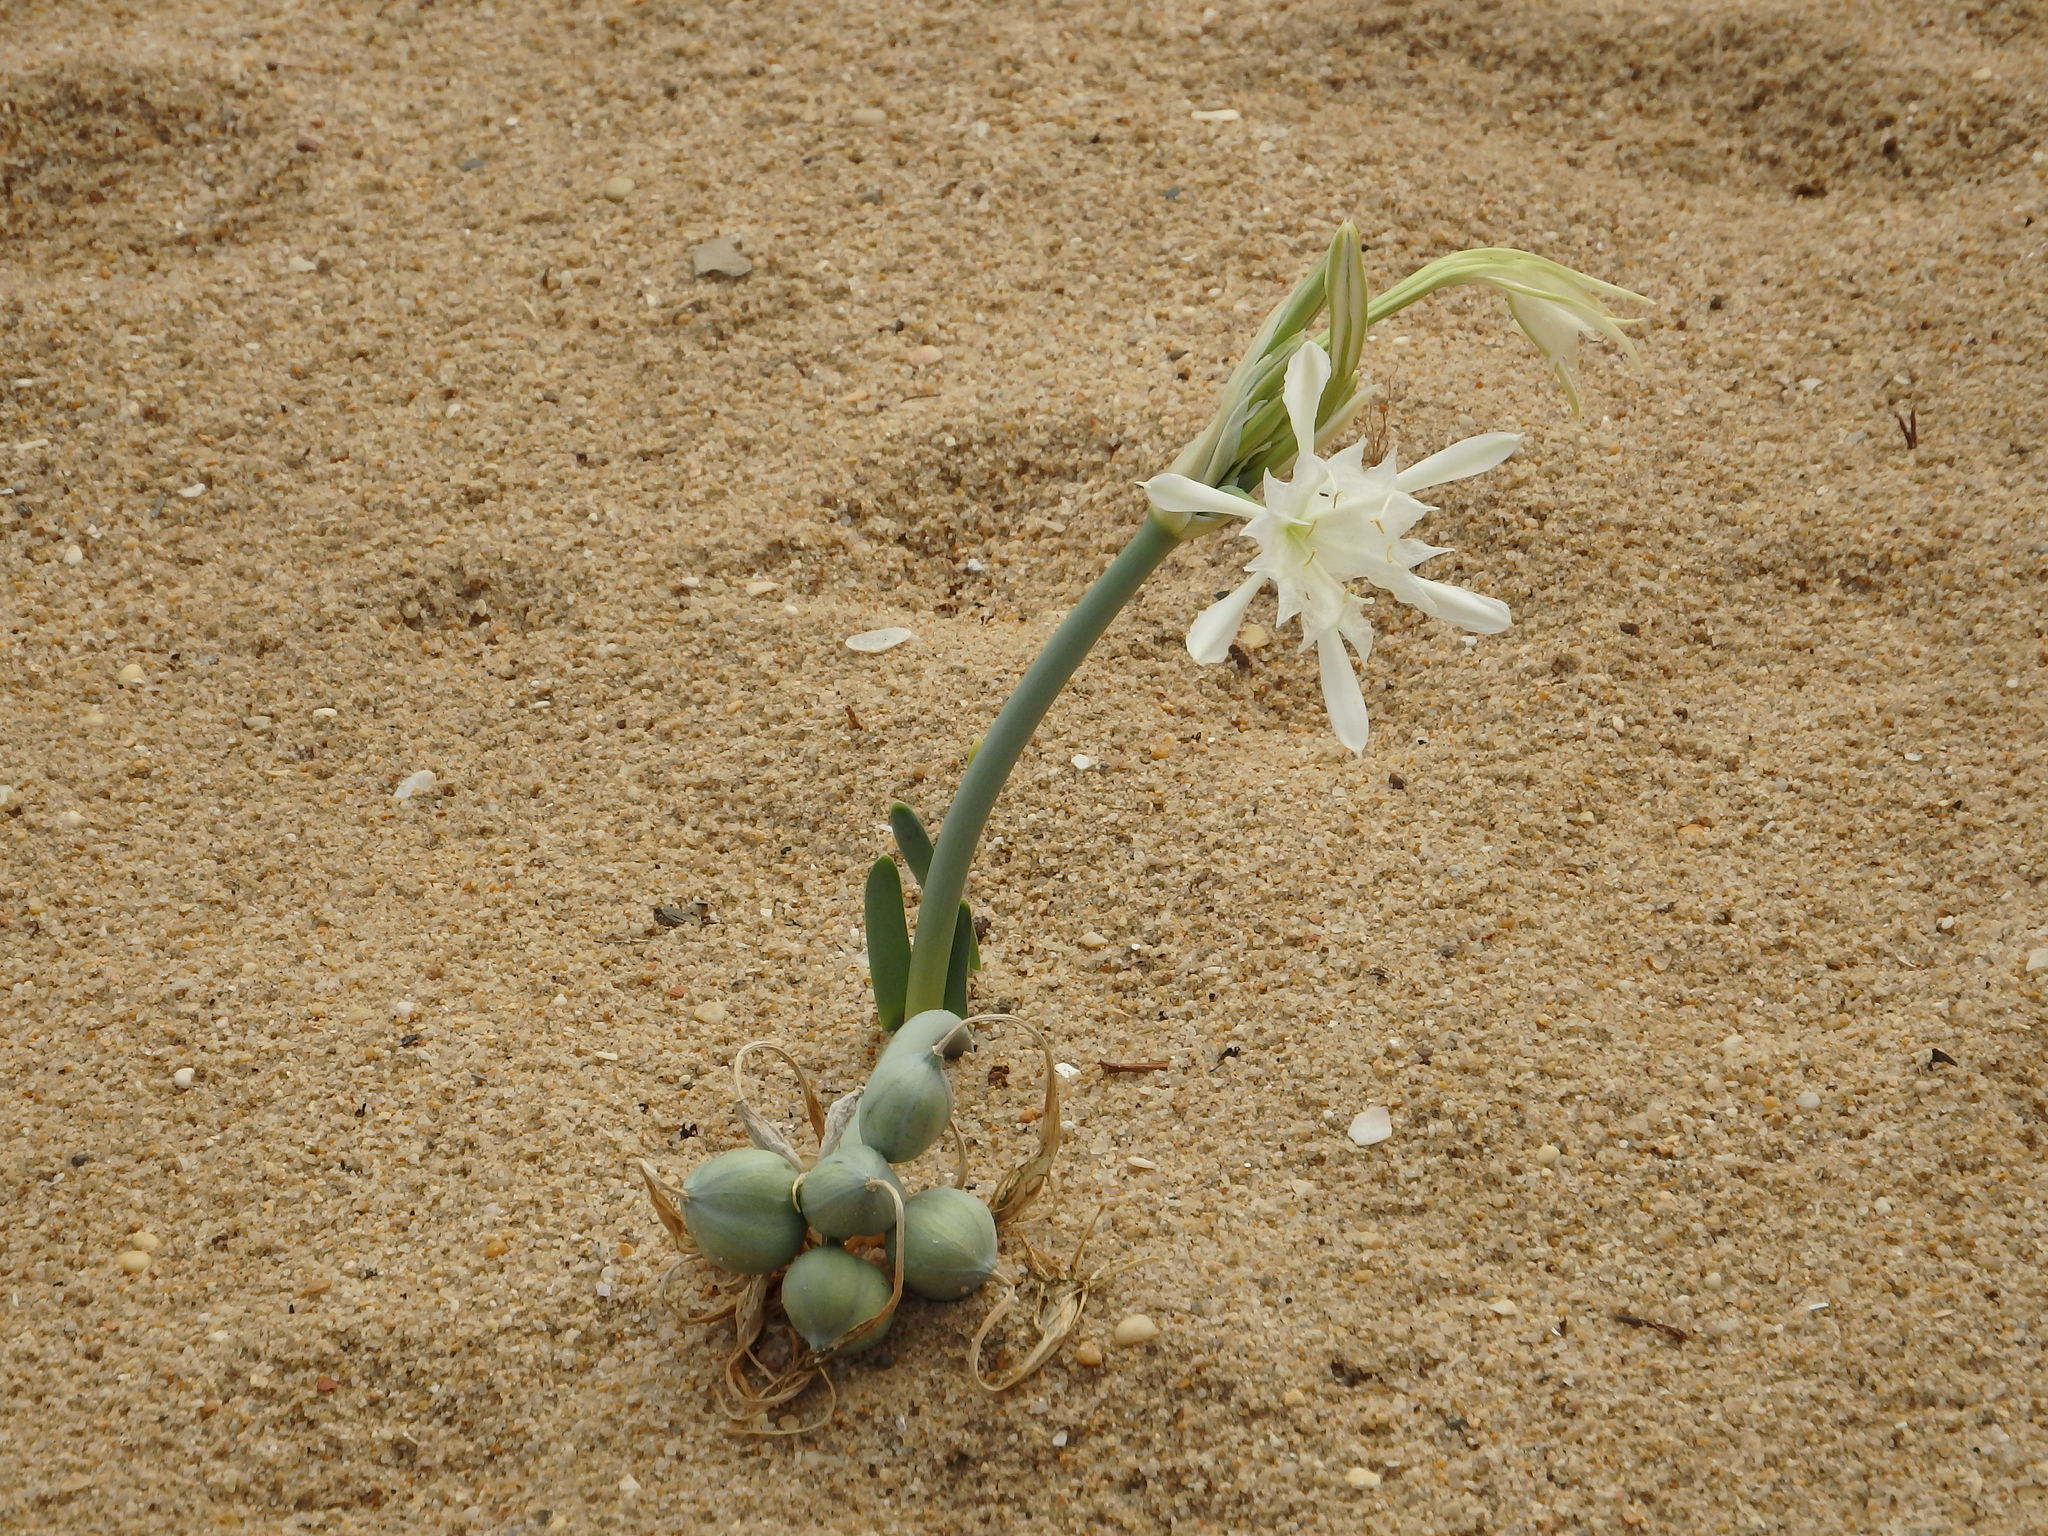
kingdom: Plantae
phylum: Tracheophyta
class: Liliopsida
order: Asparagales
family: Amaryllidaceae
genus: Pancratium
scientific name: Pancratium maritimum
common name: Sea-daffodil
